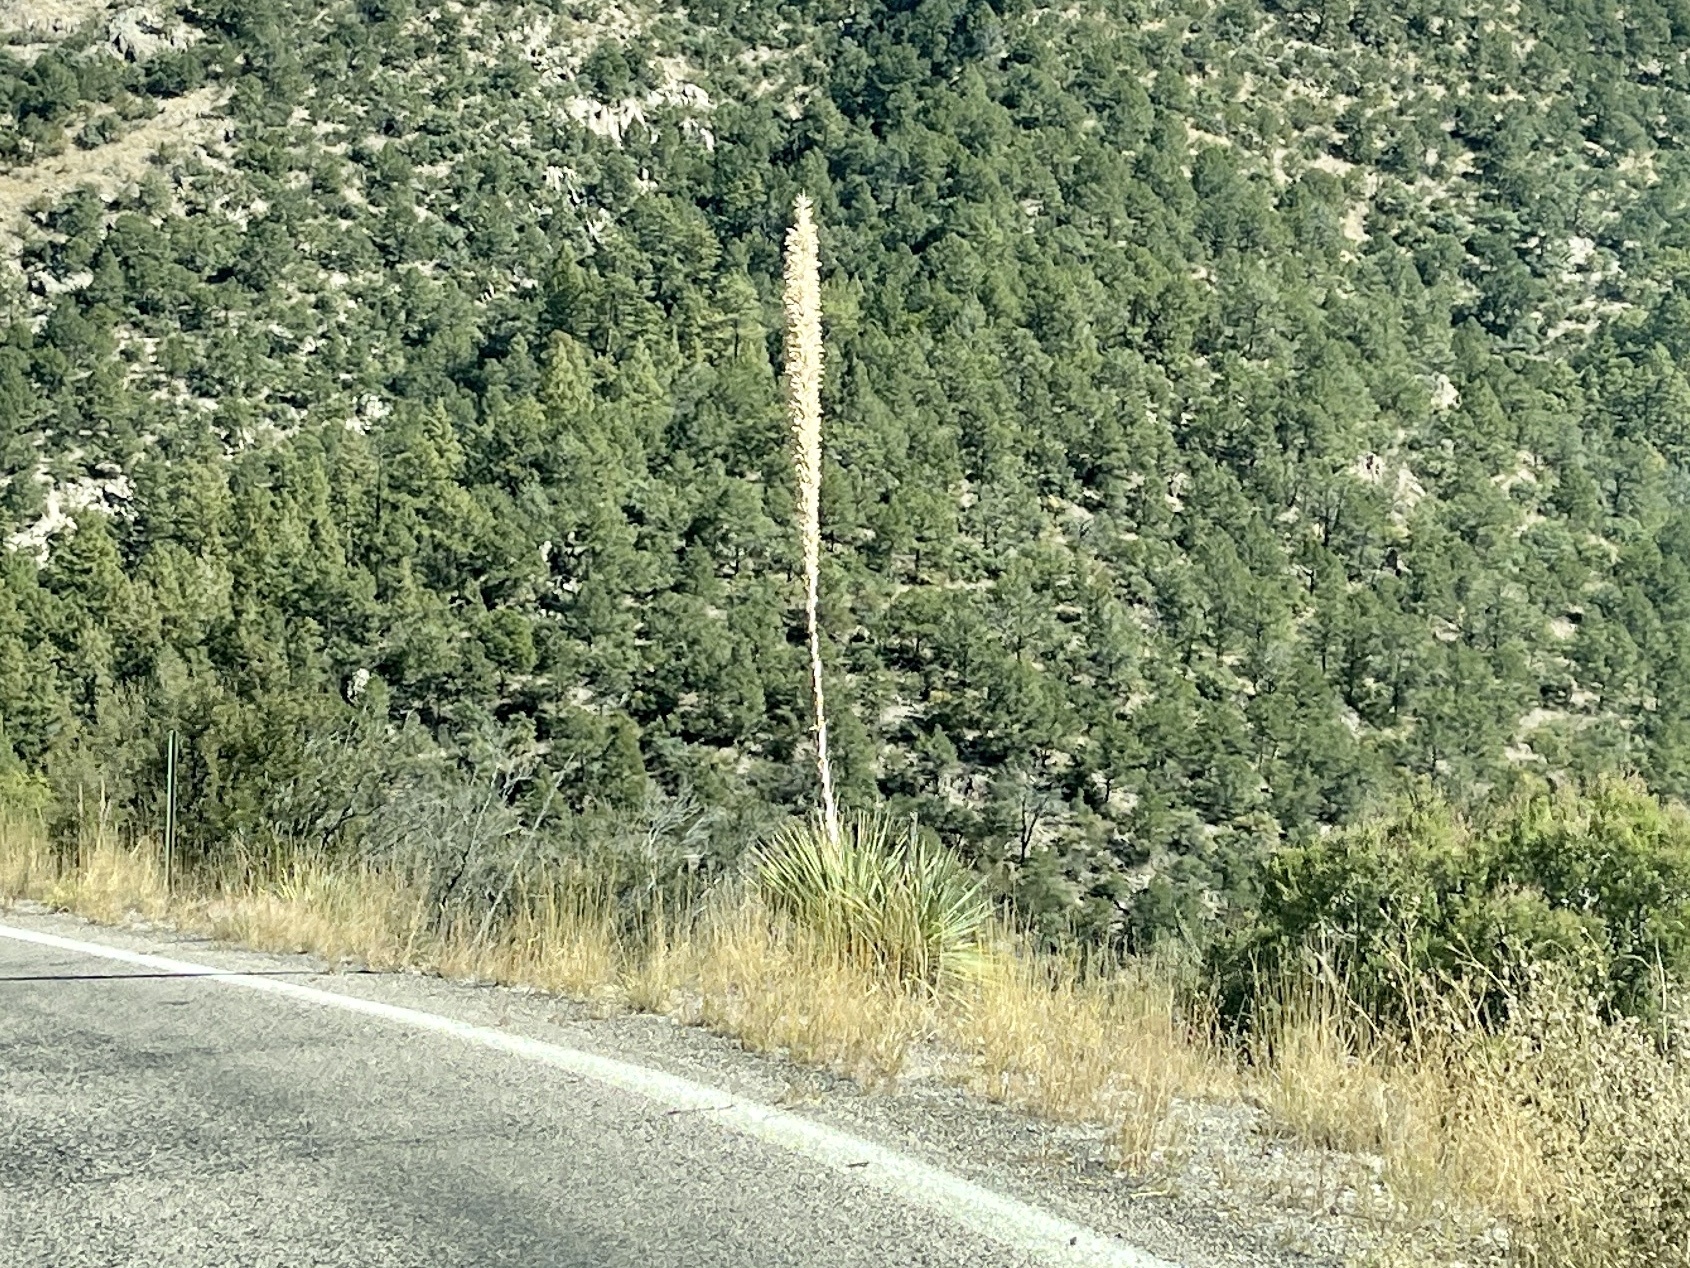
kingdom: Plantae
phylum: Tracheophyta
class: Liliopsida
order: Asparagales
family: Asparagaceae
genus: Dasylirion
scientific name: Dasylirion wheeleri
